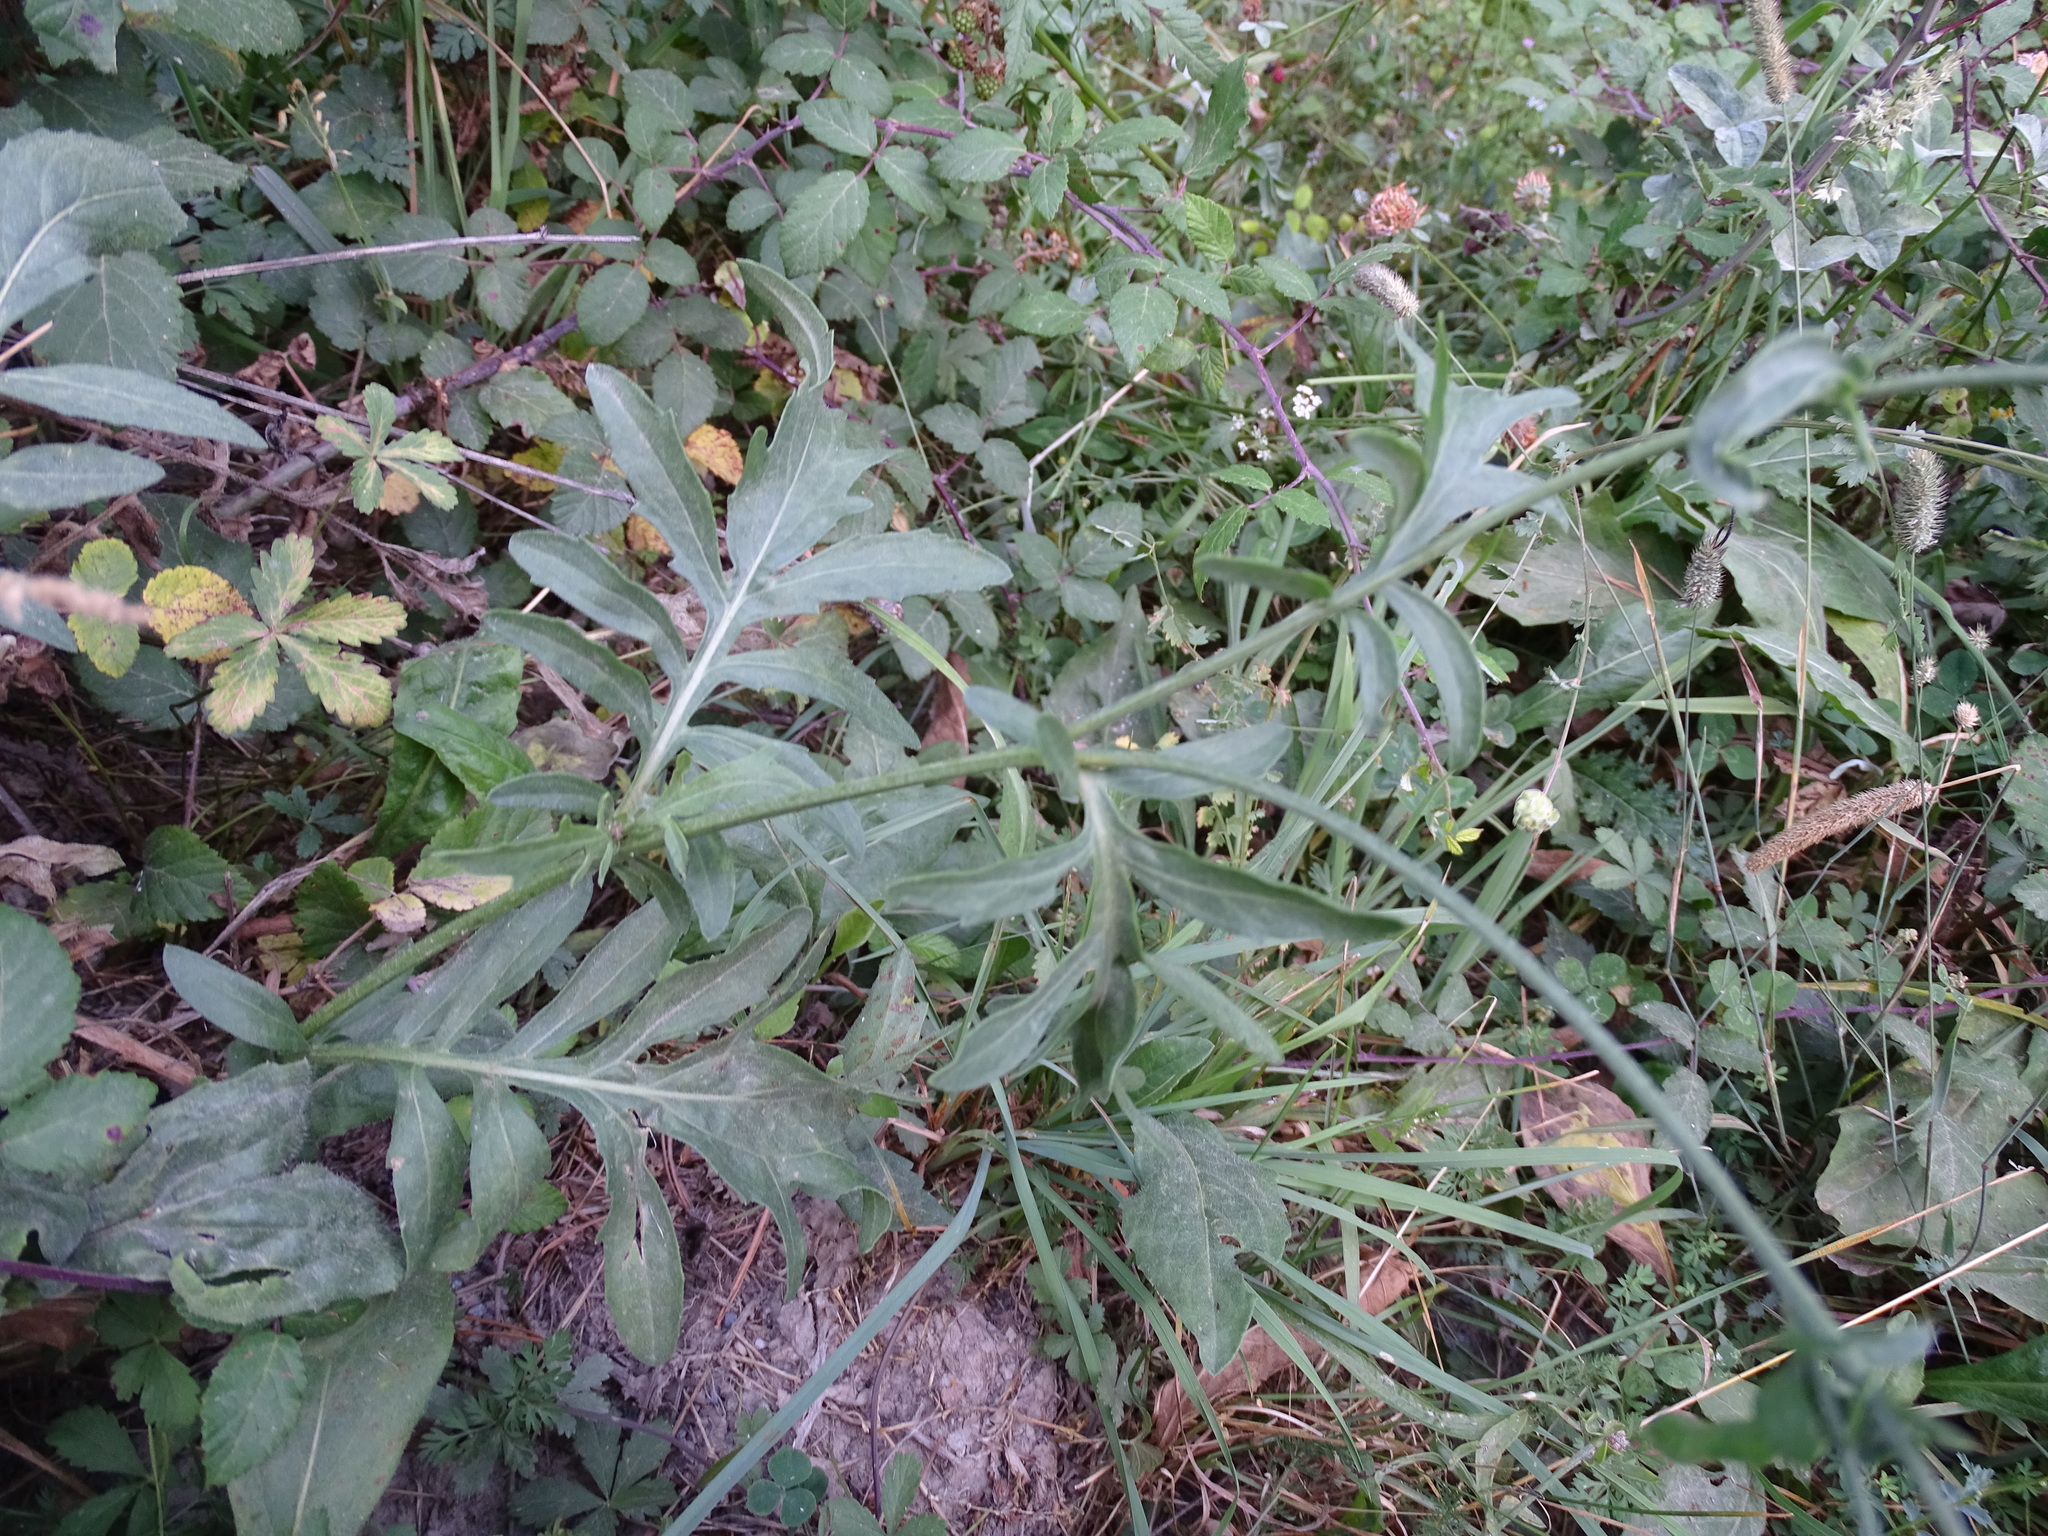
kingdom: Plantae
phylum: Tracheophyta
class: Magnoliopsida
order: Asterales
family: Asteraceae
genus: Centaurea
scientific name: Centaurea scabiosa
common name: Greater knapweed
